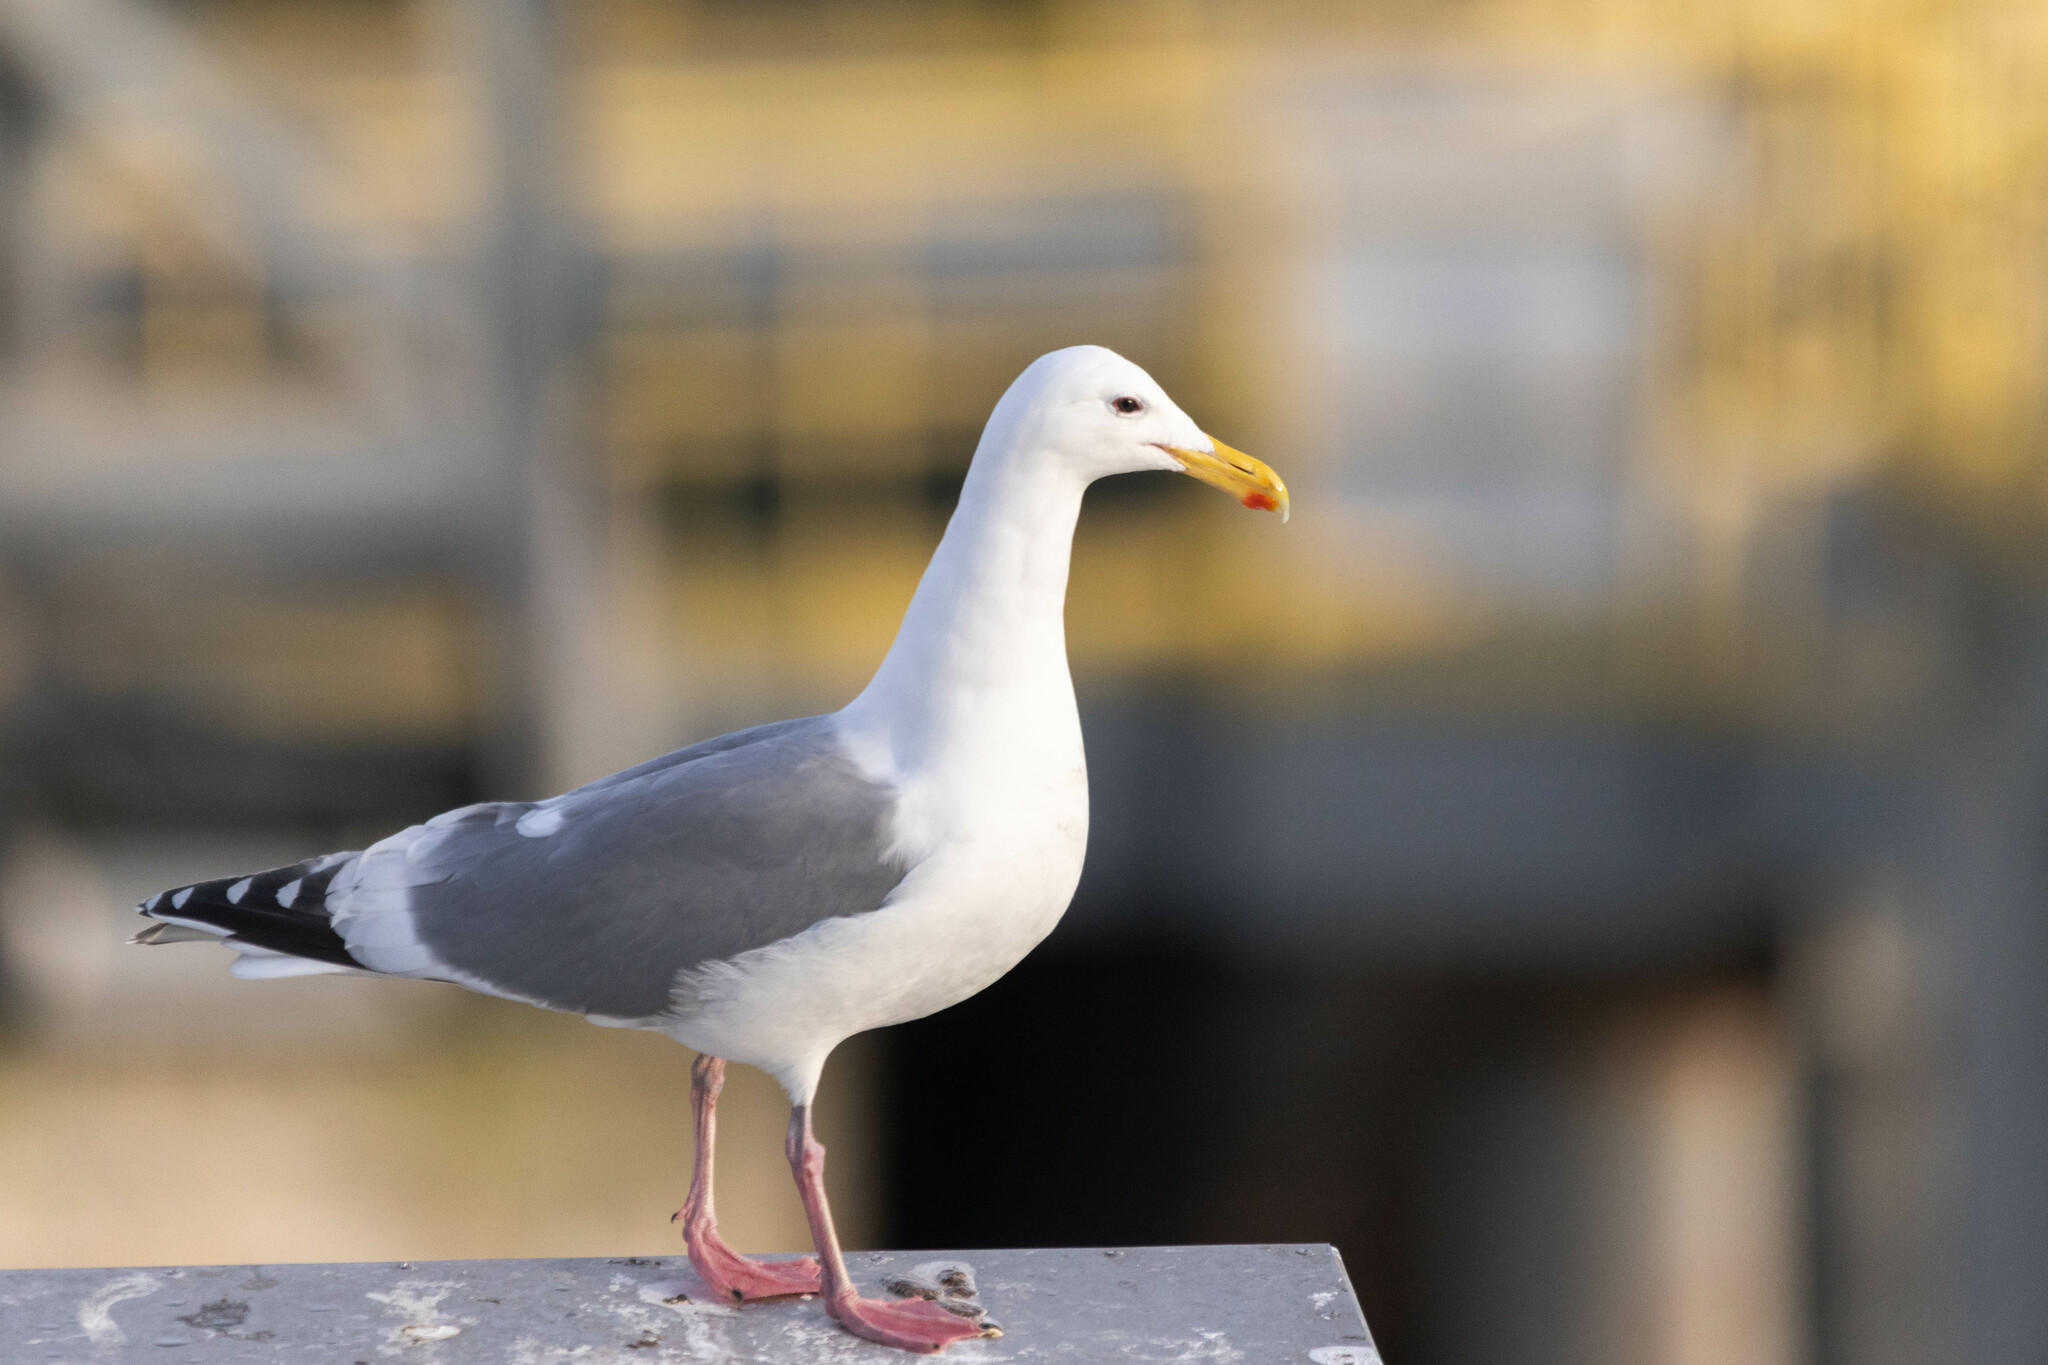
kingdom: Animalia
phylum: Chordata
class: Aves
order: Charadriiformes
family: Laridae
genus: Larus
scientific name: Larus
